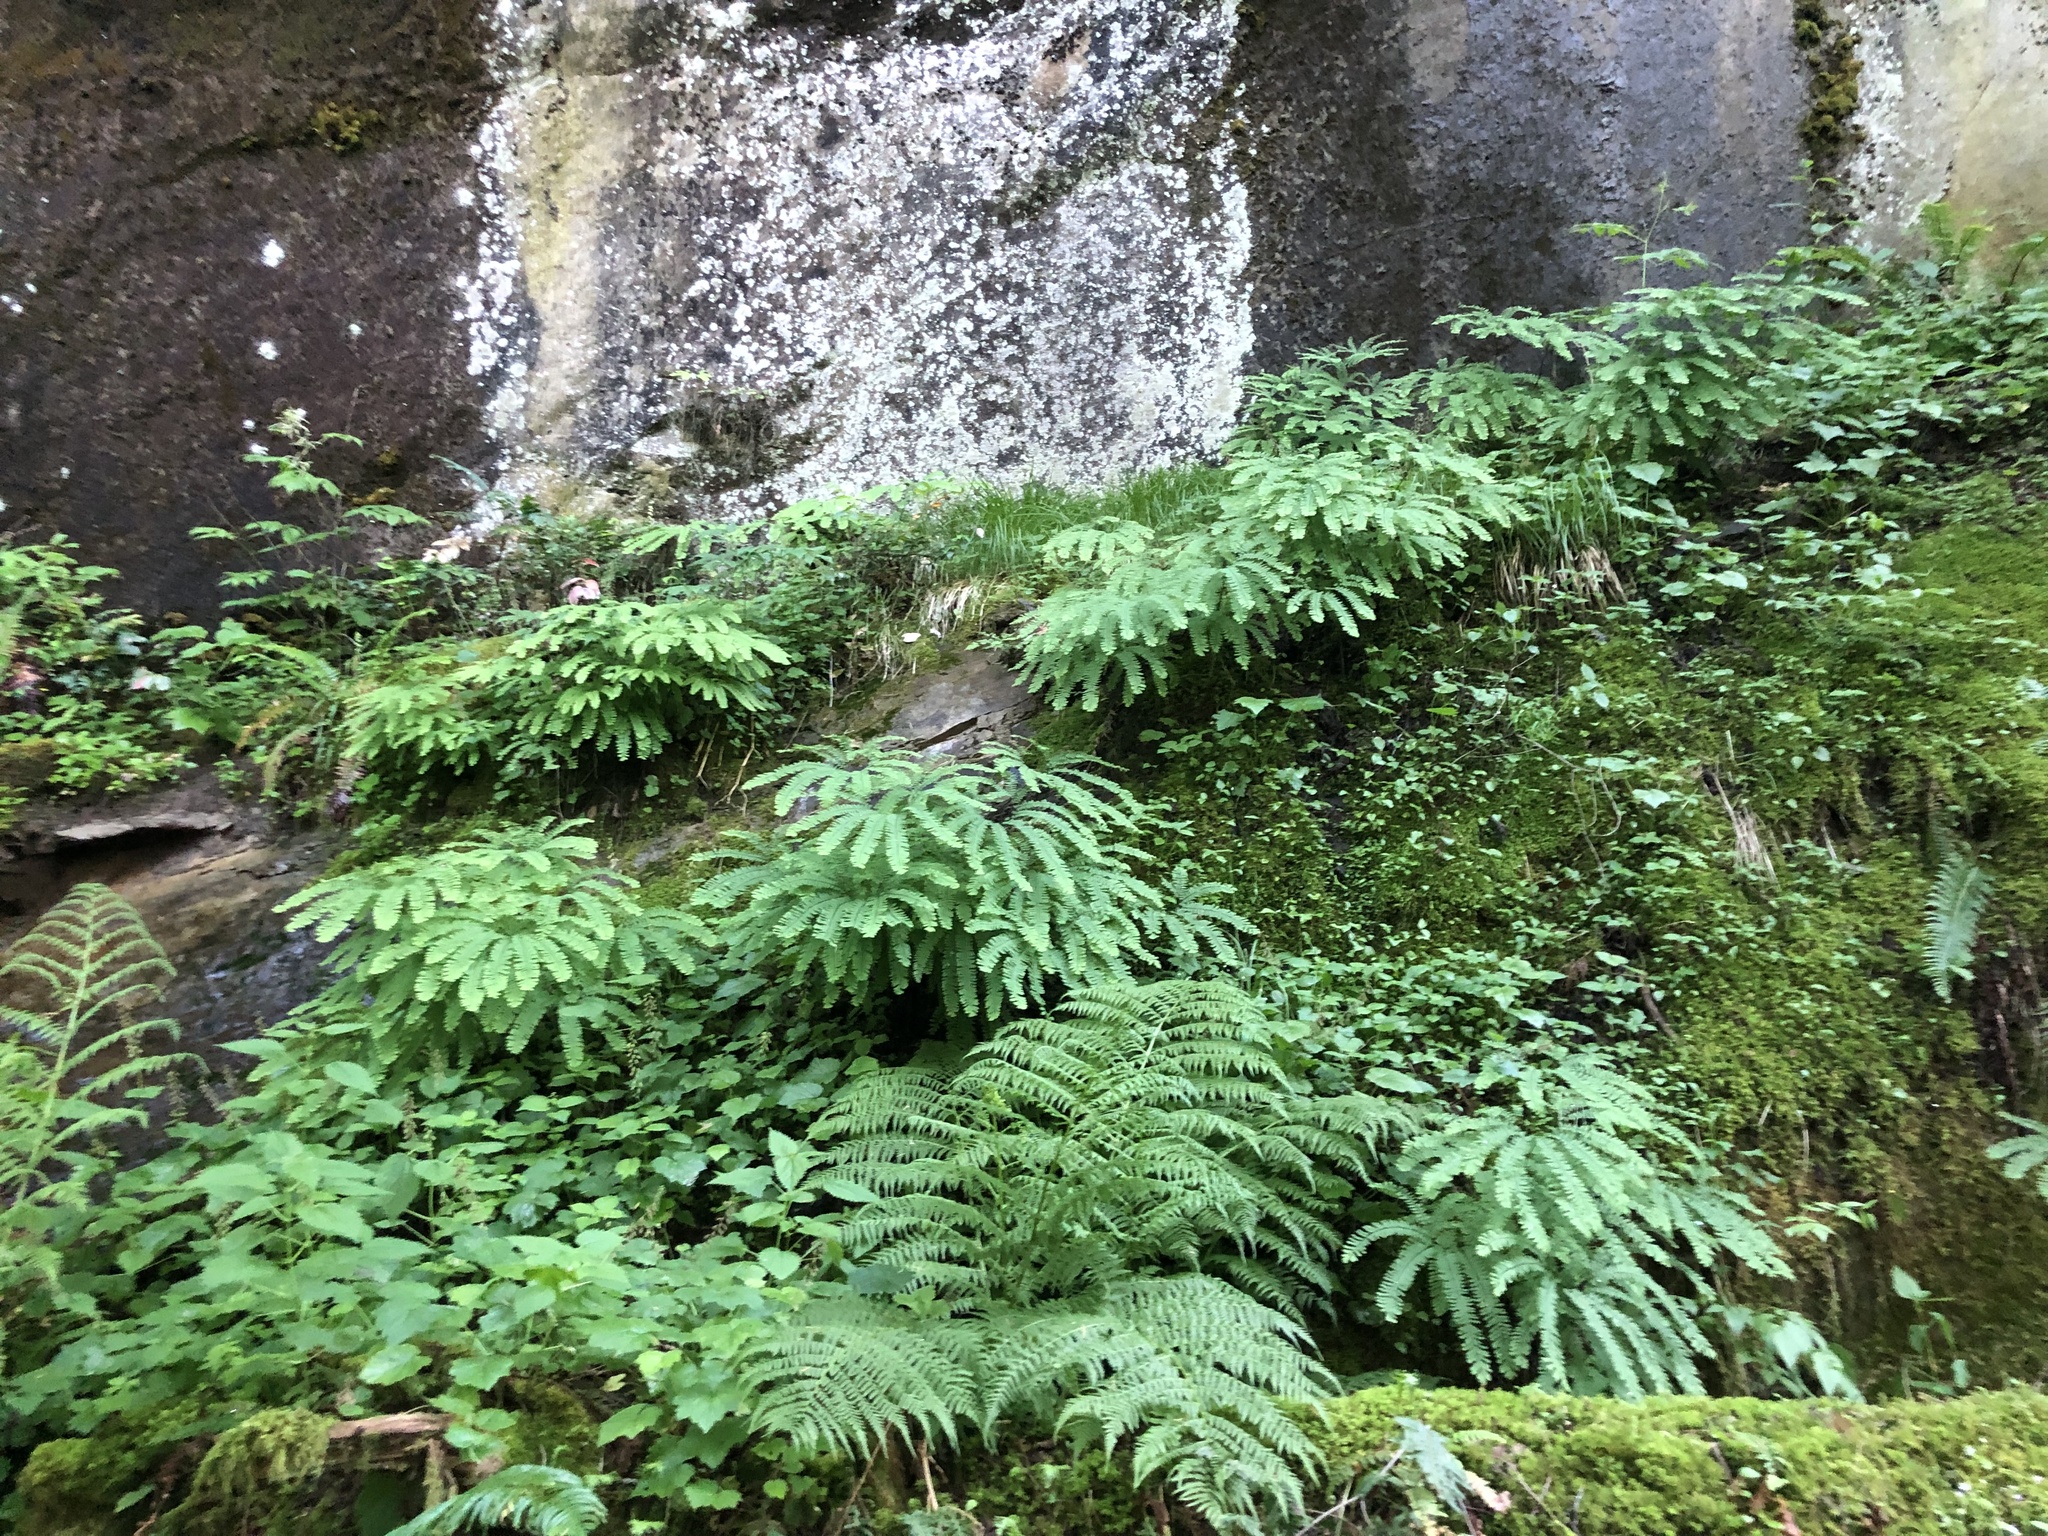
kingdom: Plantae
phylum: Tracheophyta
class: Polypodiopsida
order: Polypodiales
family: Pteridaceae
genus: Adiantum
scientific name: Adiantum aleuticum
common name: Aleutian maidenhair fern
